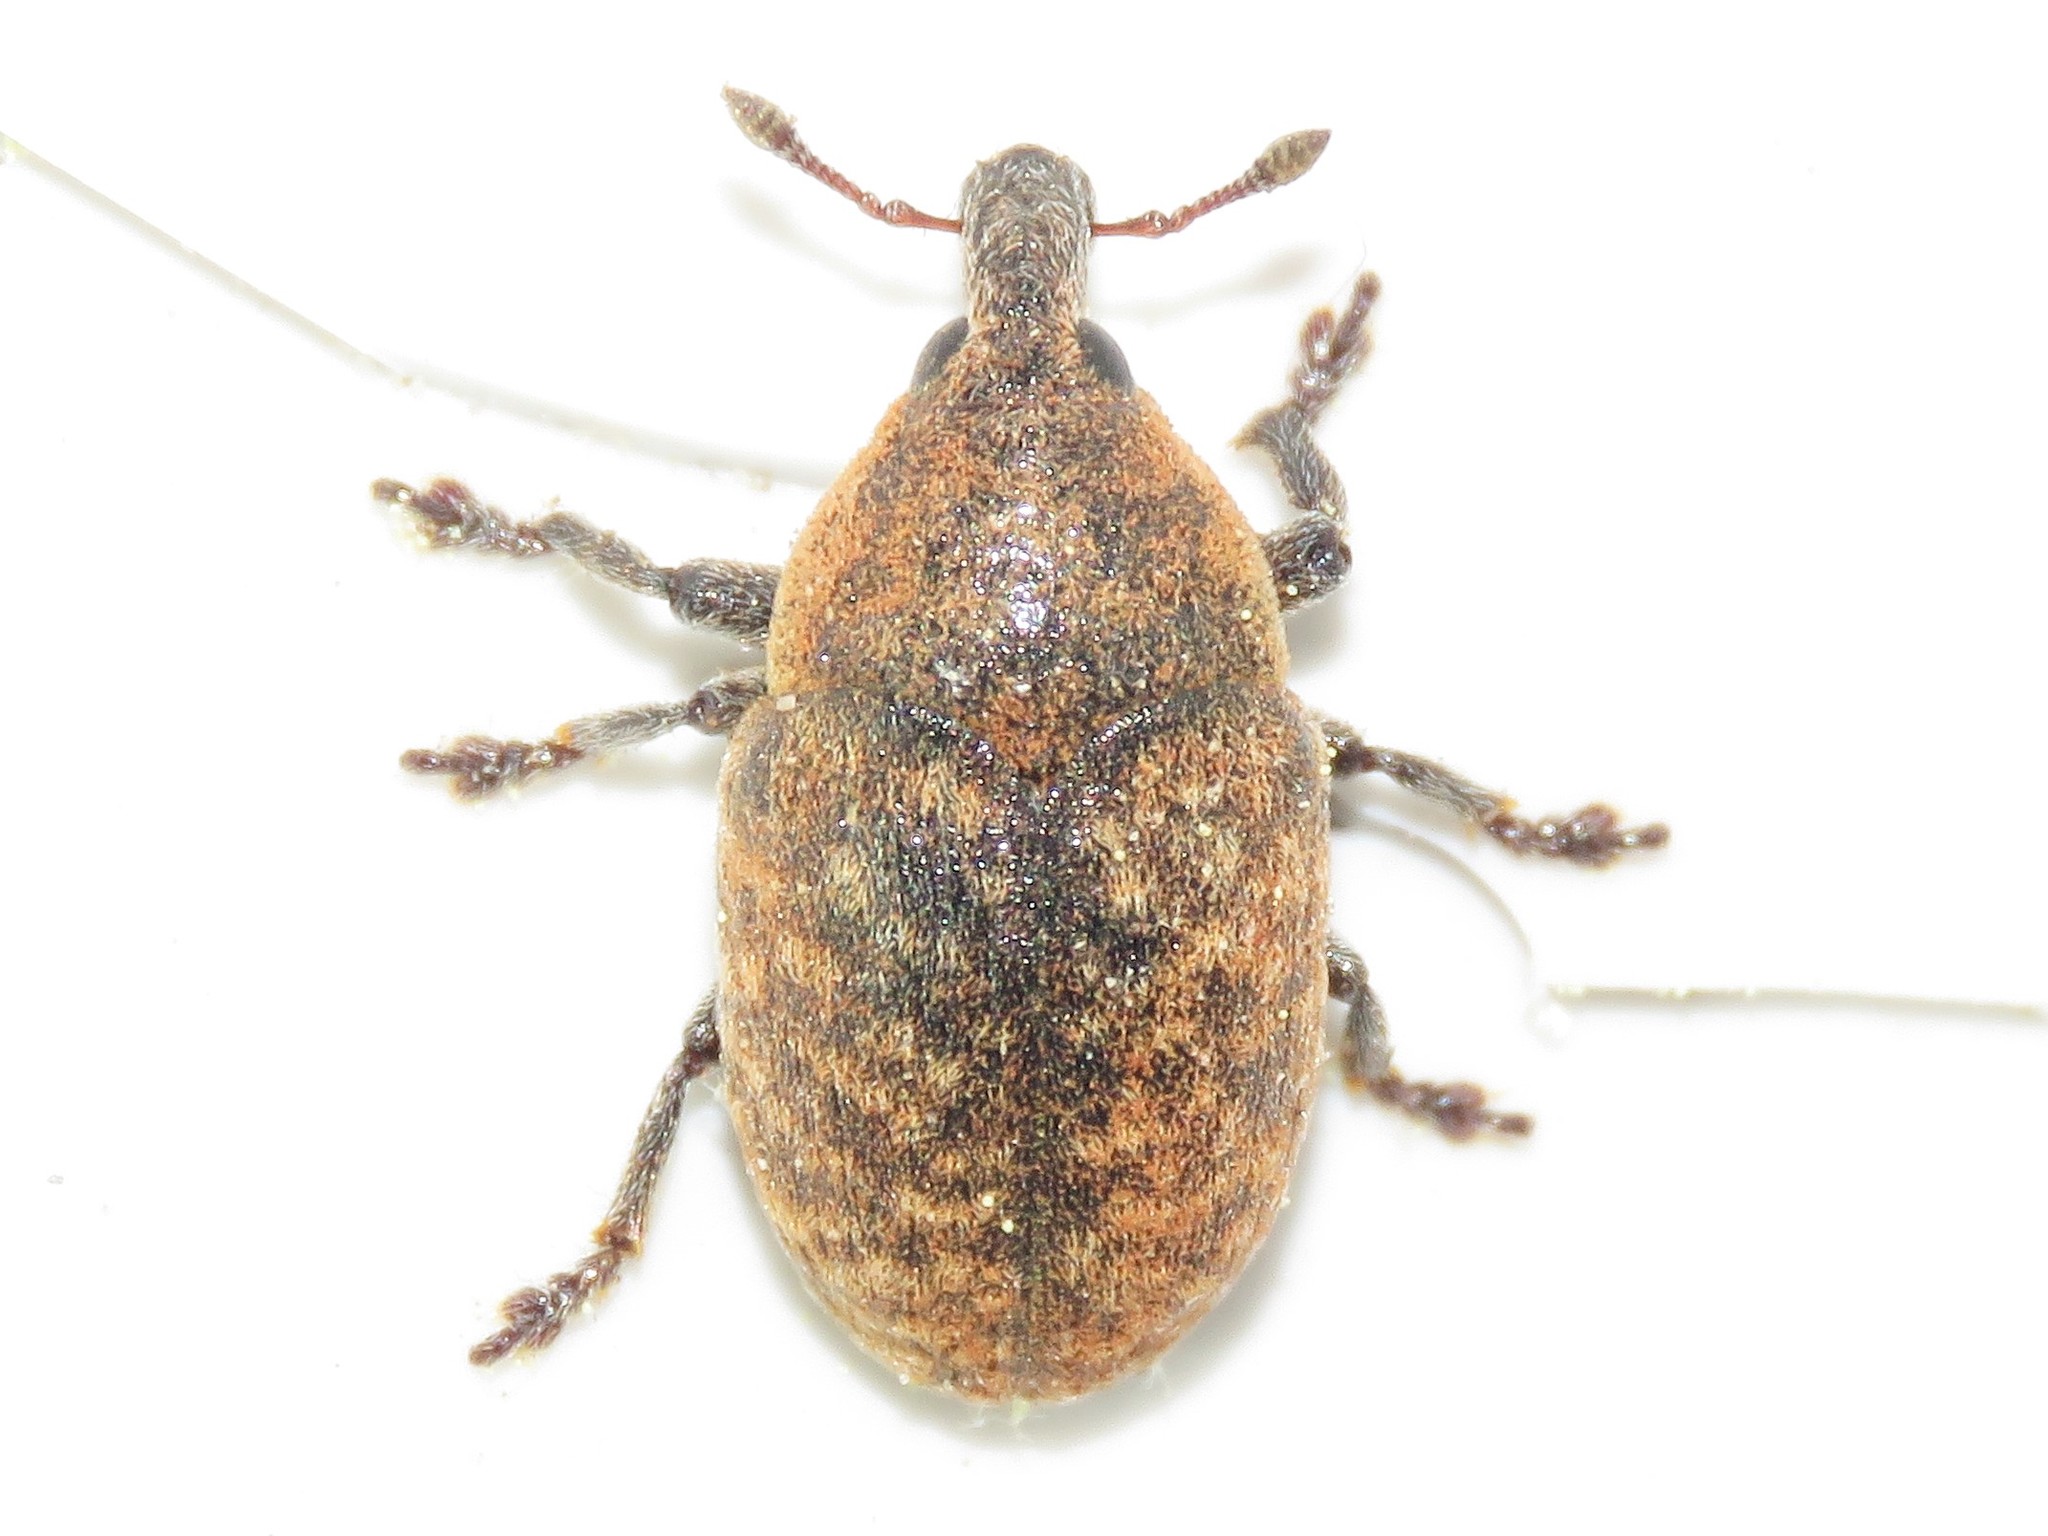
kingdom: Animalia
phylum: Arthropoda
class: Insecta
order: Coleoptera
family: Curculionidae
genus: Larinus
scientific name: Larinus obtusus
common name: Weevil
